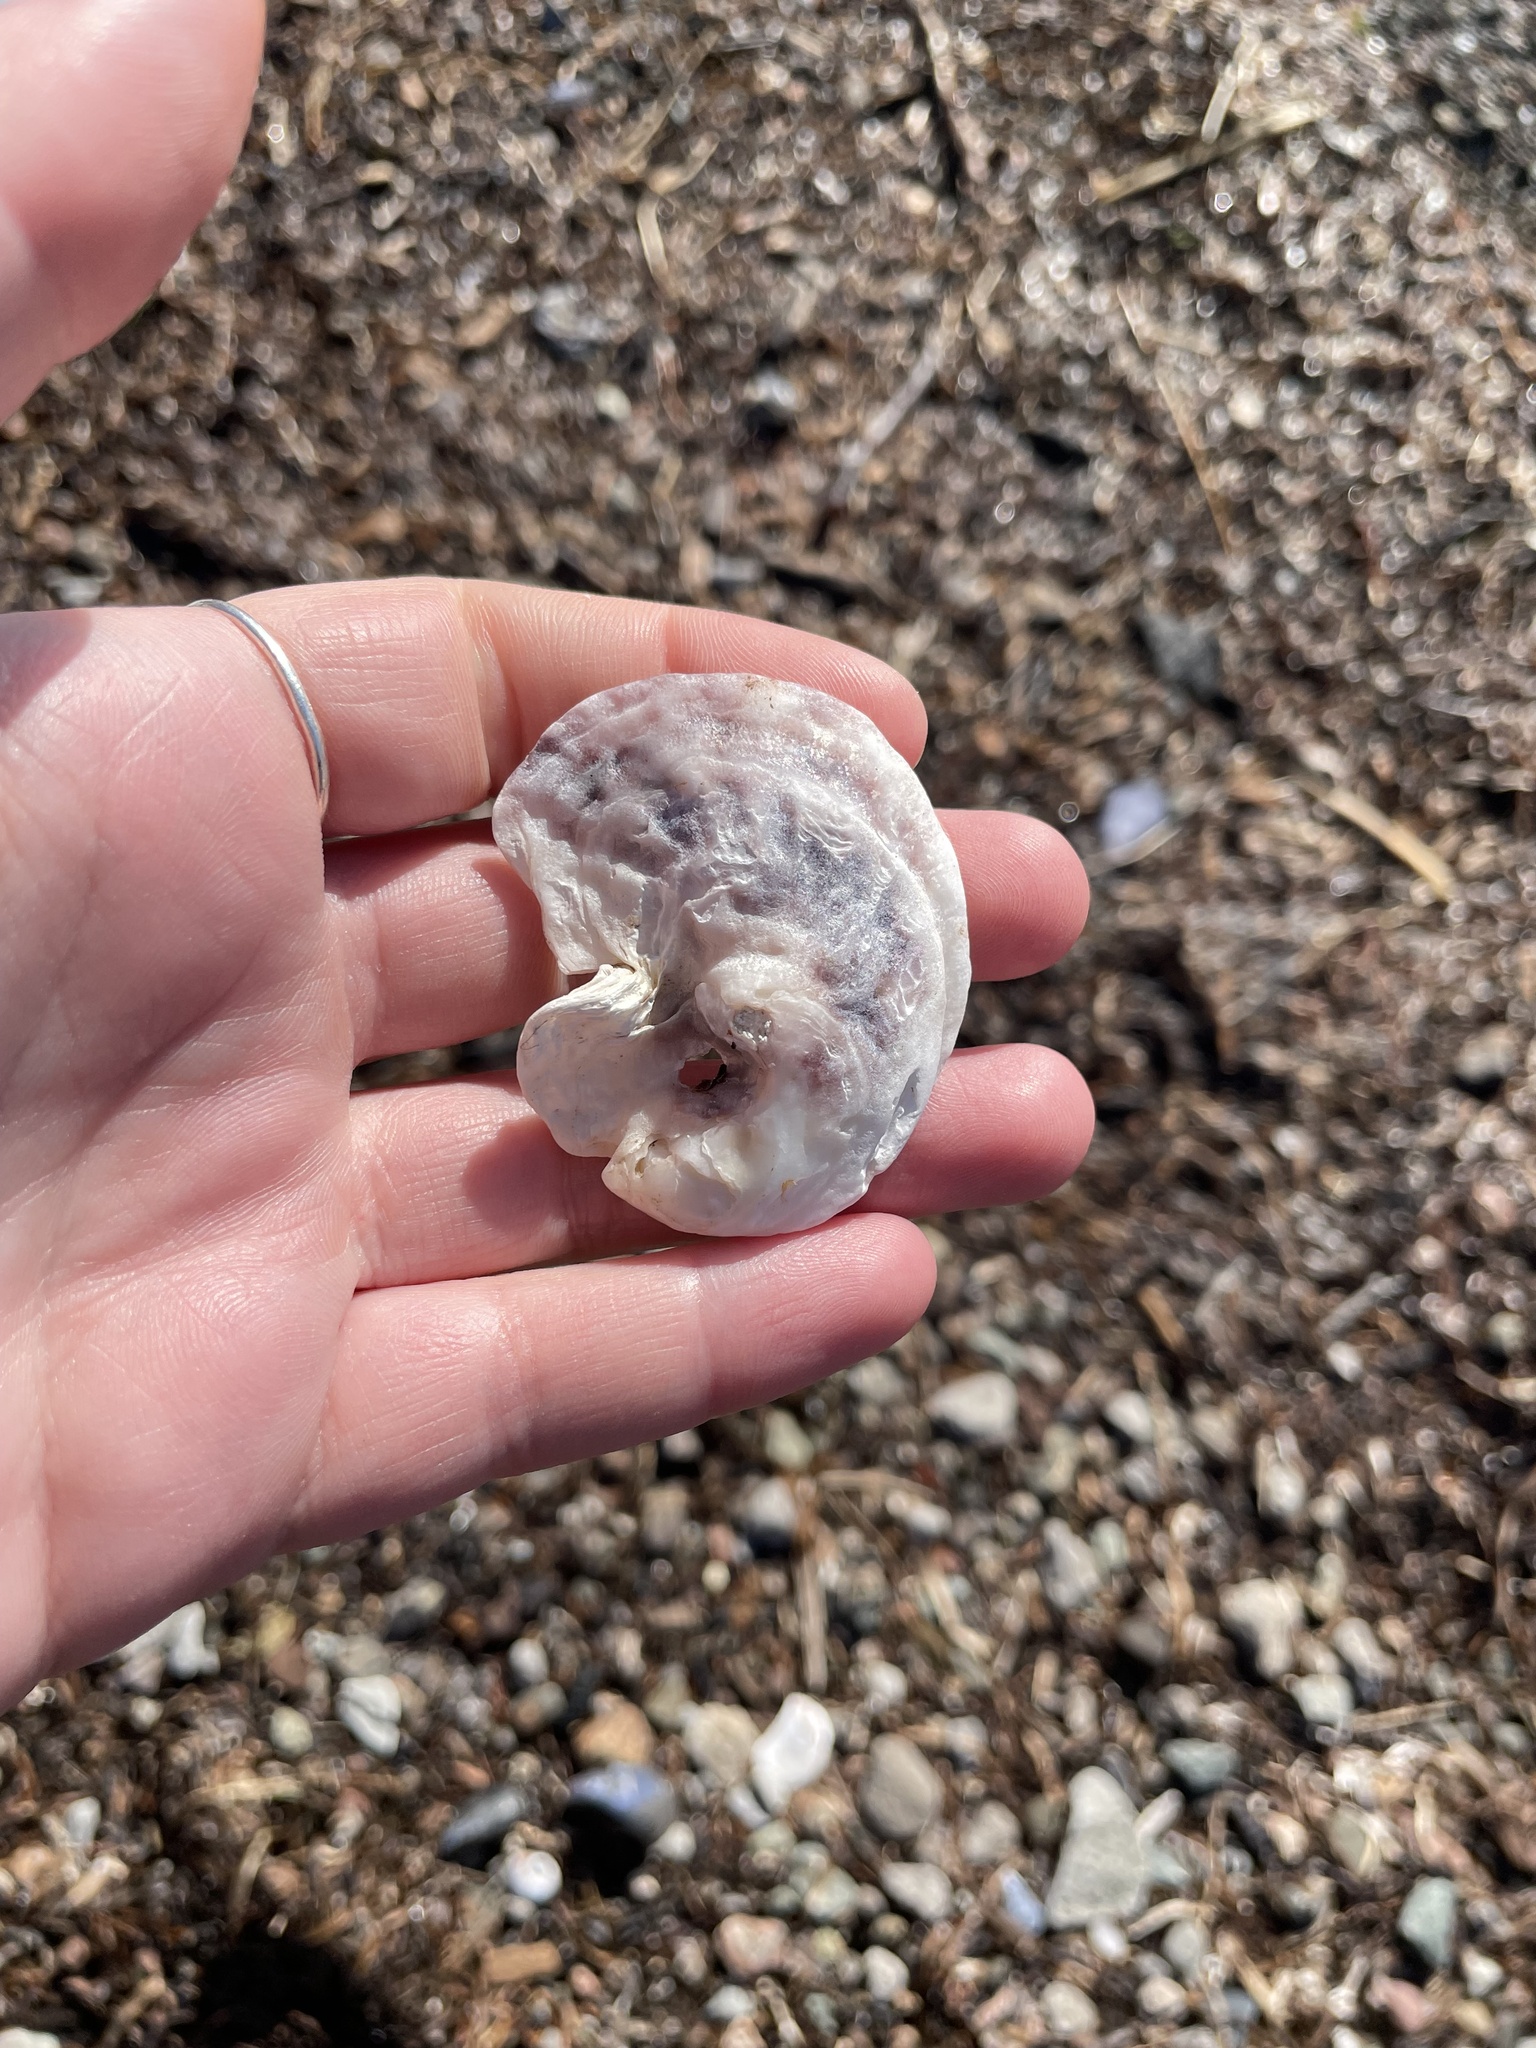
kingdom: Animalia
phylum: Mollusca
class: Bivalvia
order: Ostreida
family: Ostreidae
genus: Crassostrea
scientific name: Crassostrea virginica
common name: American oyster
